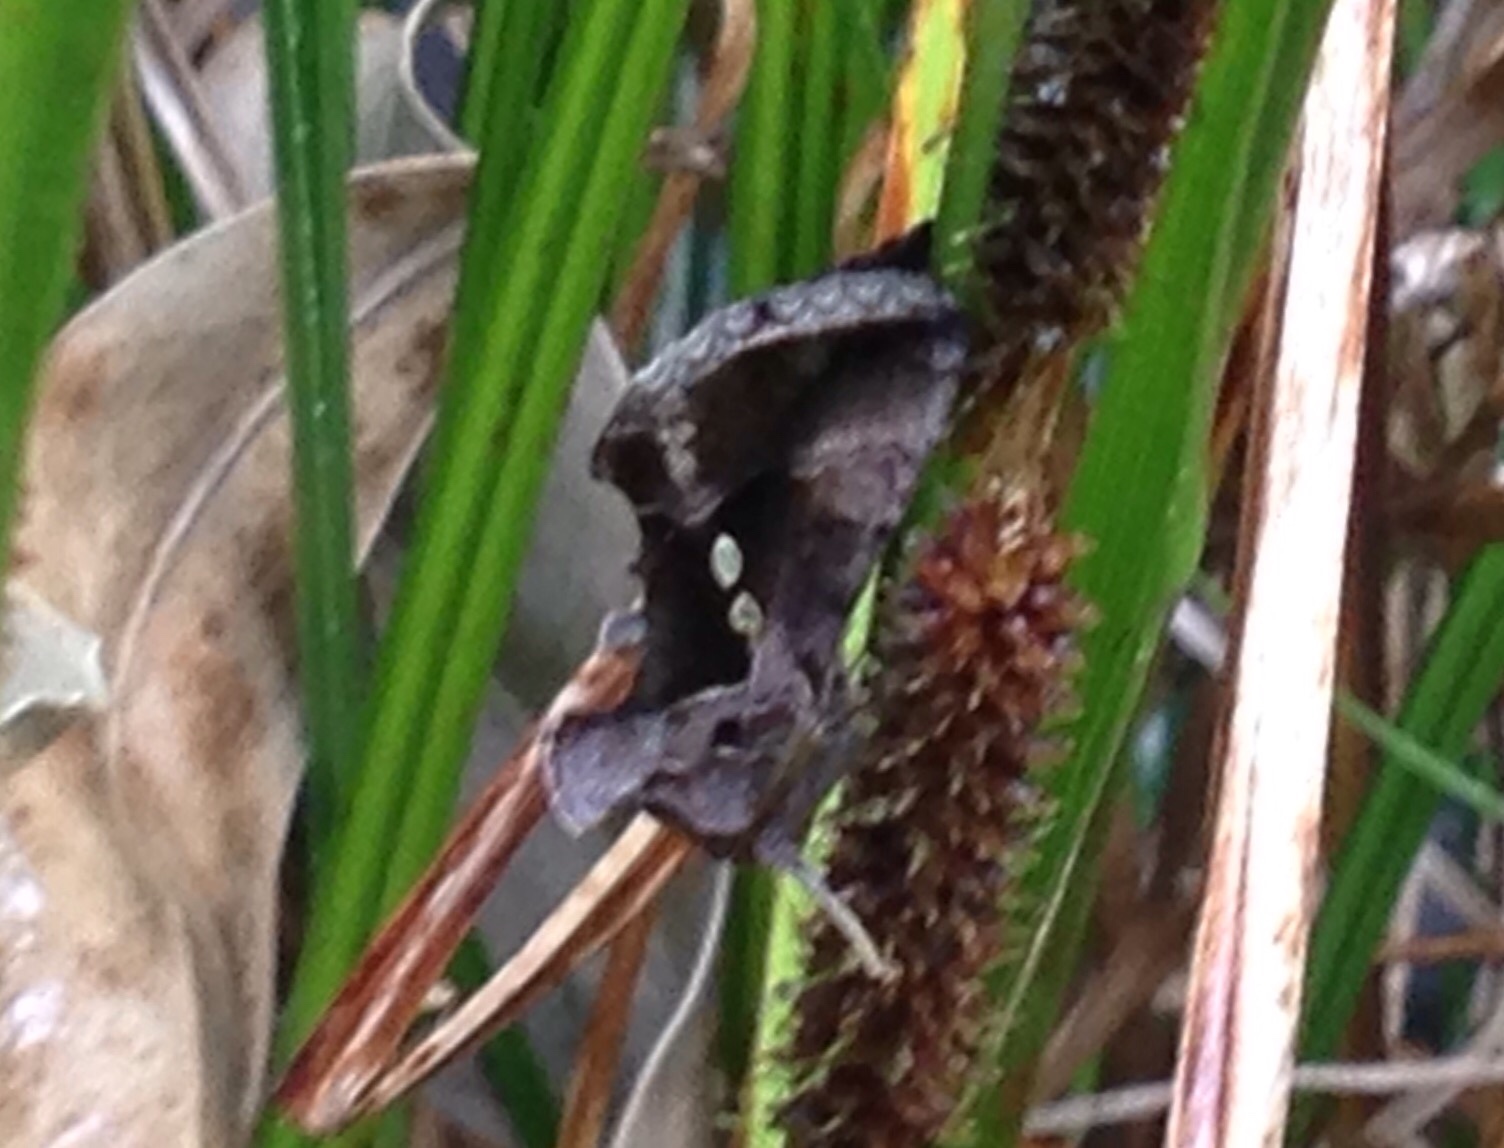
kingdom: Animalia
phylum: Arthropoda
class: Insecta
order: Lepidoptera
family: Noctuidae
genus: Chrysodeixis
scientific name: Chrysodeixis eriosoma
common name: Green garden looper
